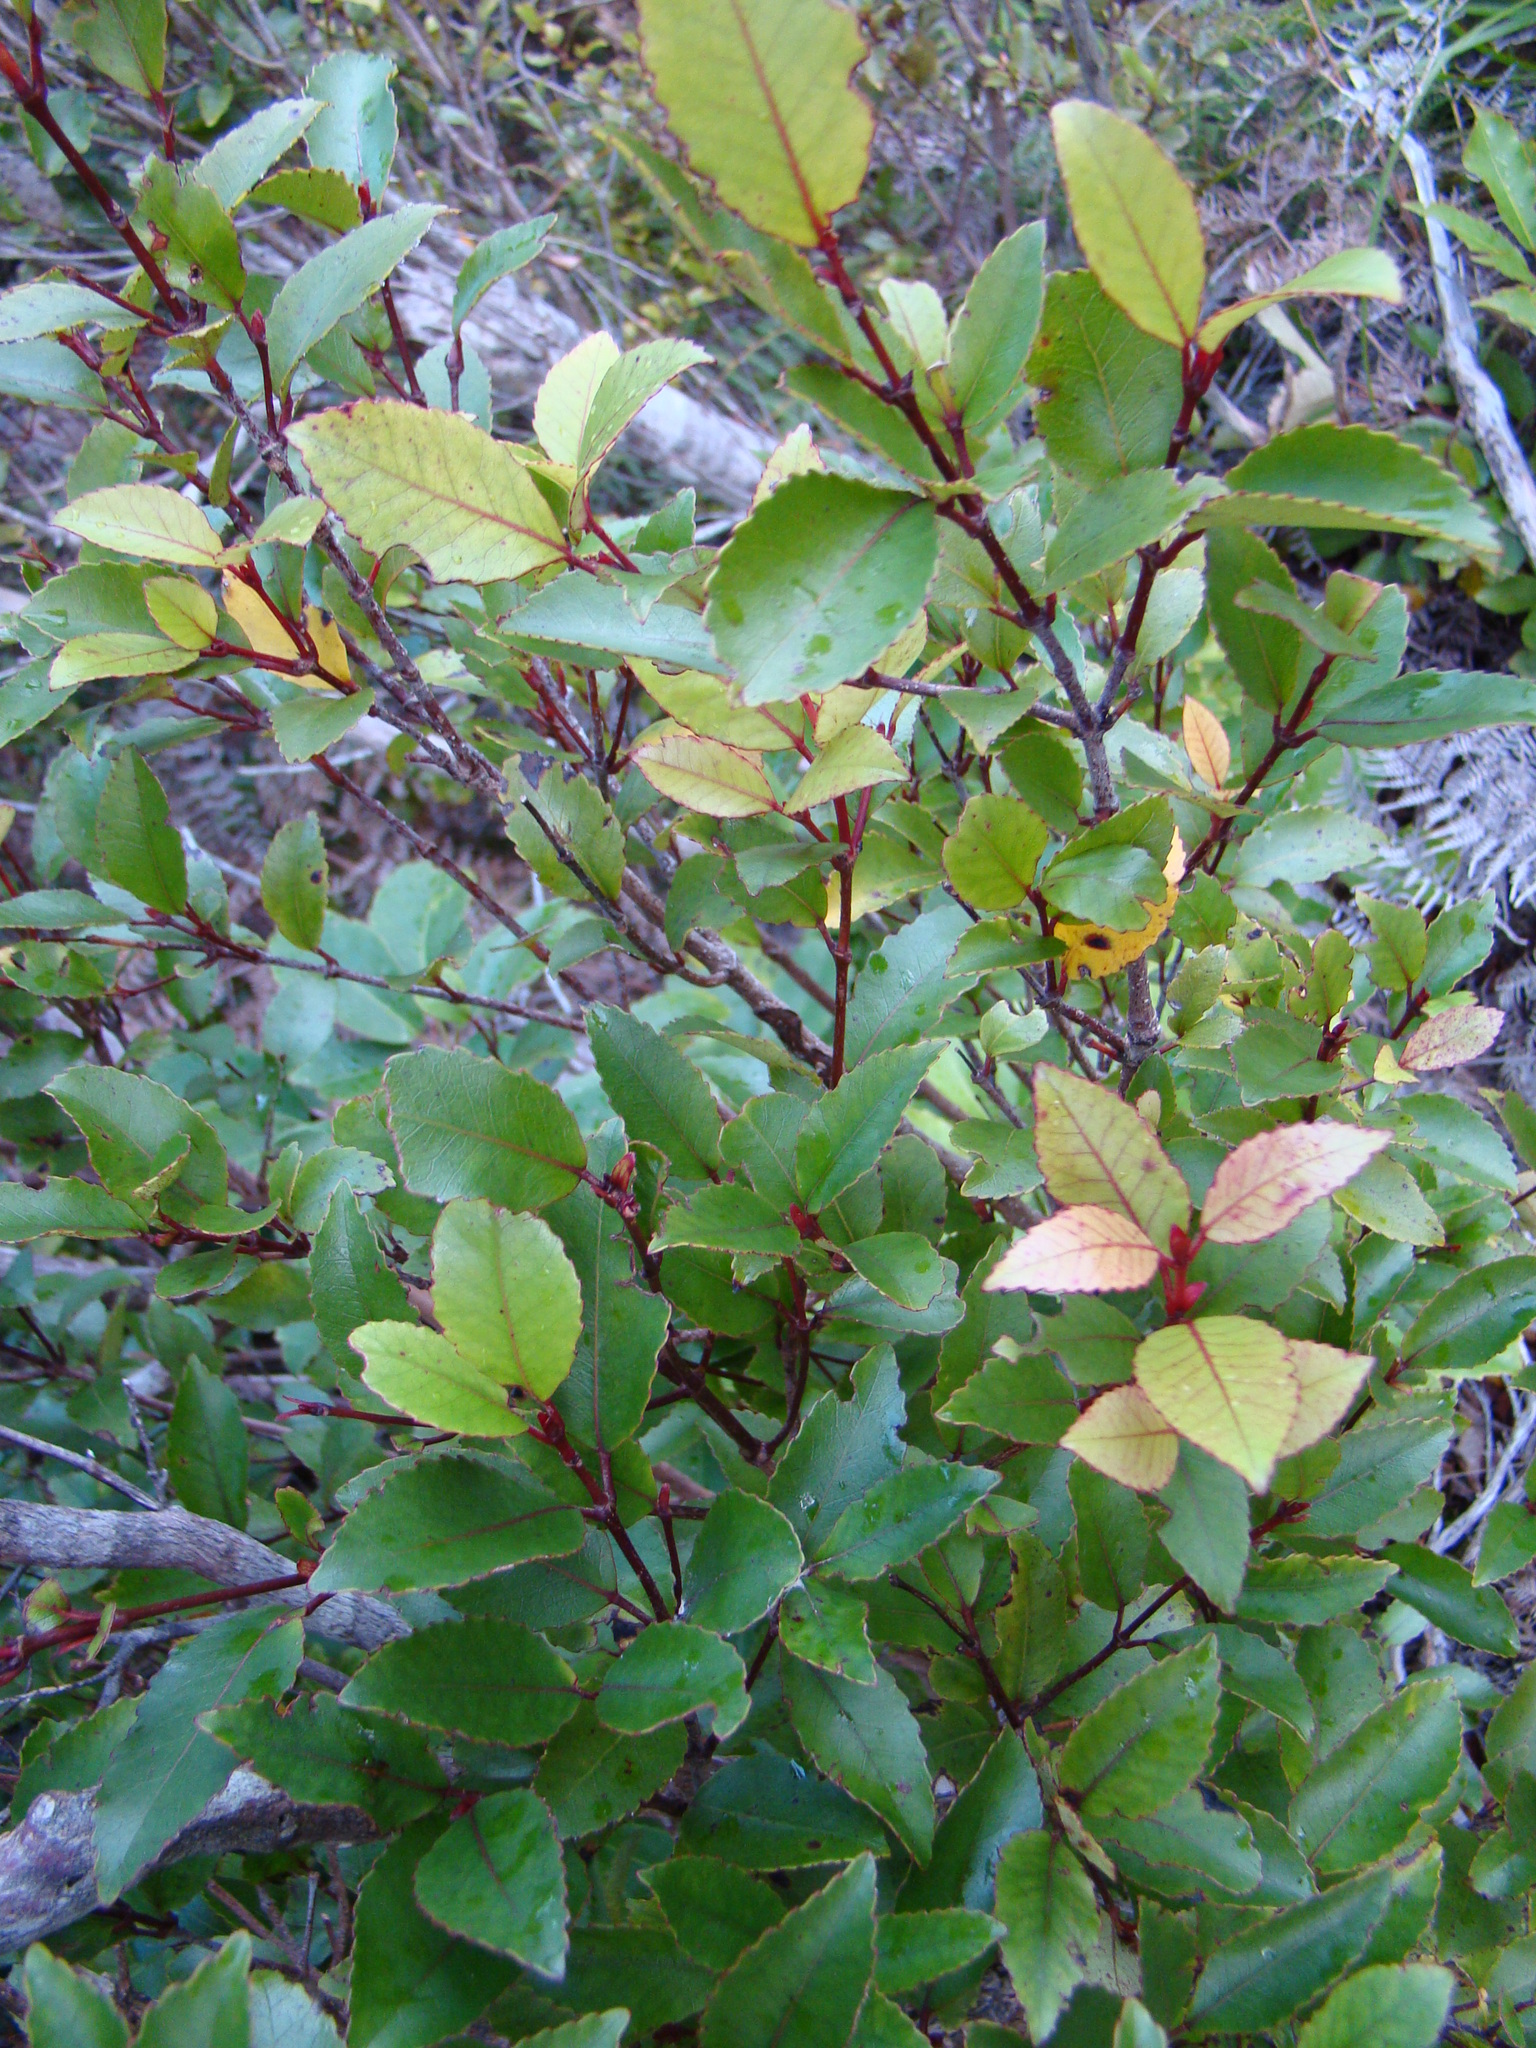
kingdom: Plantae
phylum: Tracheophyta
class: Magnoliopsida
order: Oxalidales
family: Cunoniaceae
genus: Pterophylla
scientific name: Pterophylla racemosa
